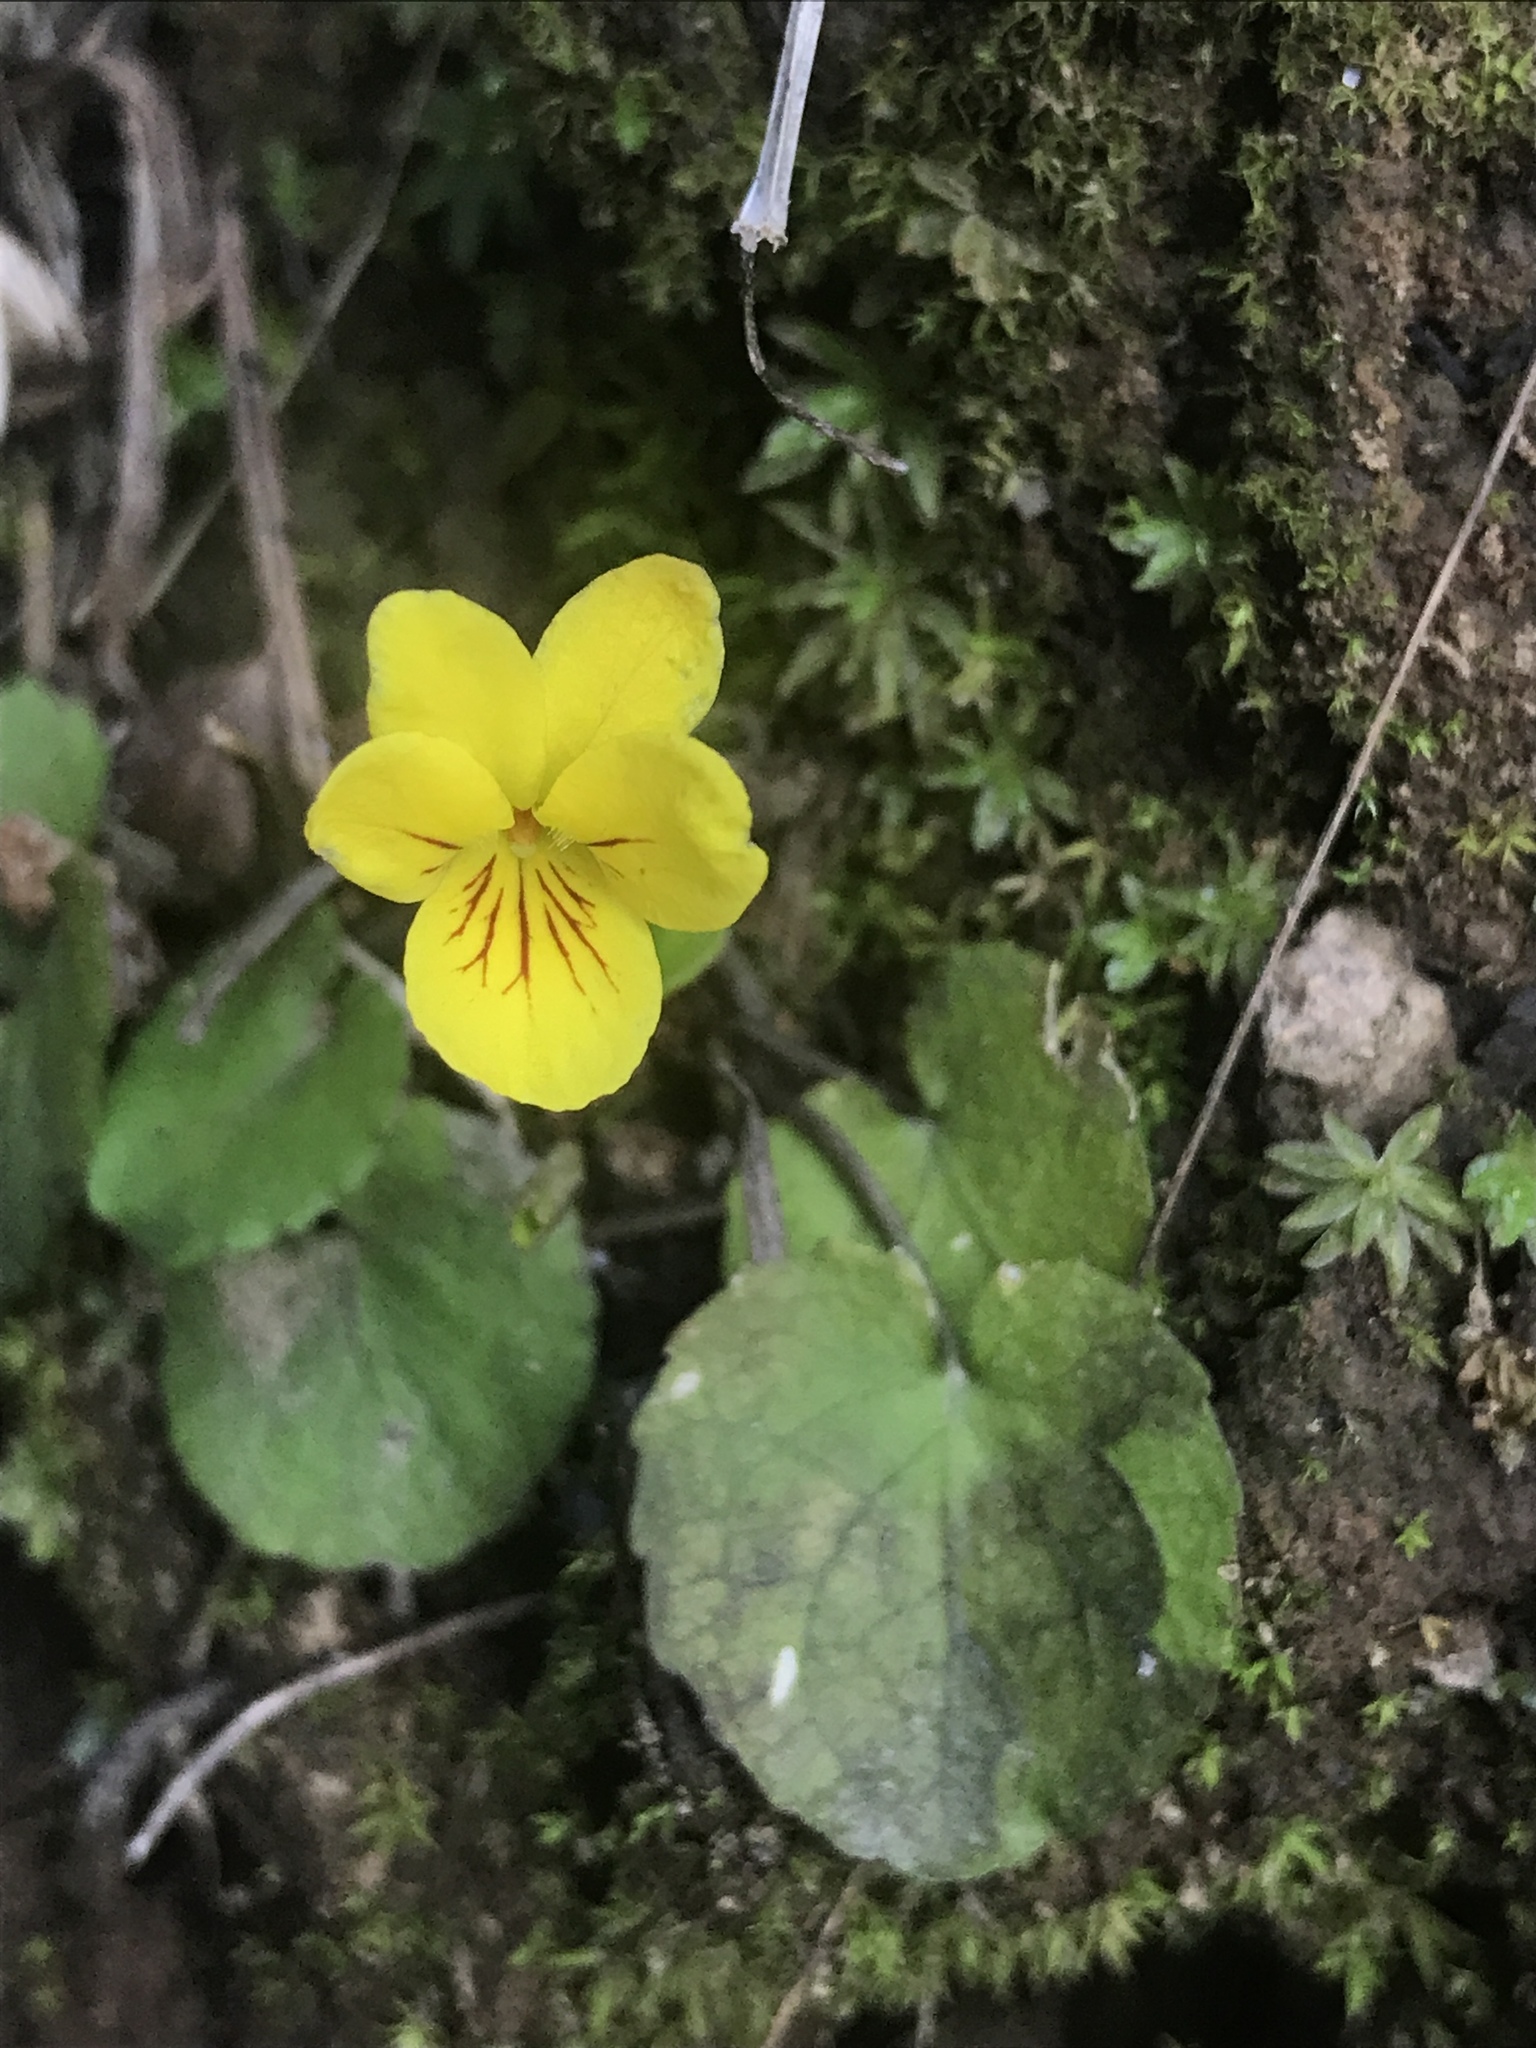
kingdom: Plantae
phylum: Tracheophyta
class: Magnoliopsida
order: Malpighiales
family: Violaceae
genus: Viola
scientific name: Viola orbiculata
